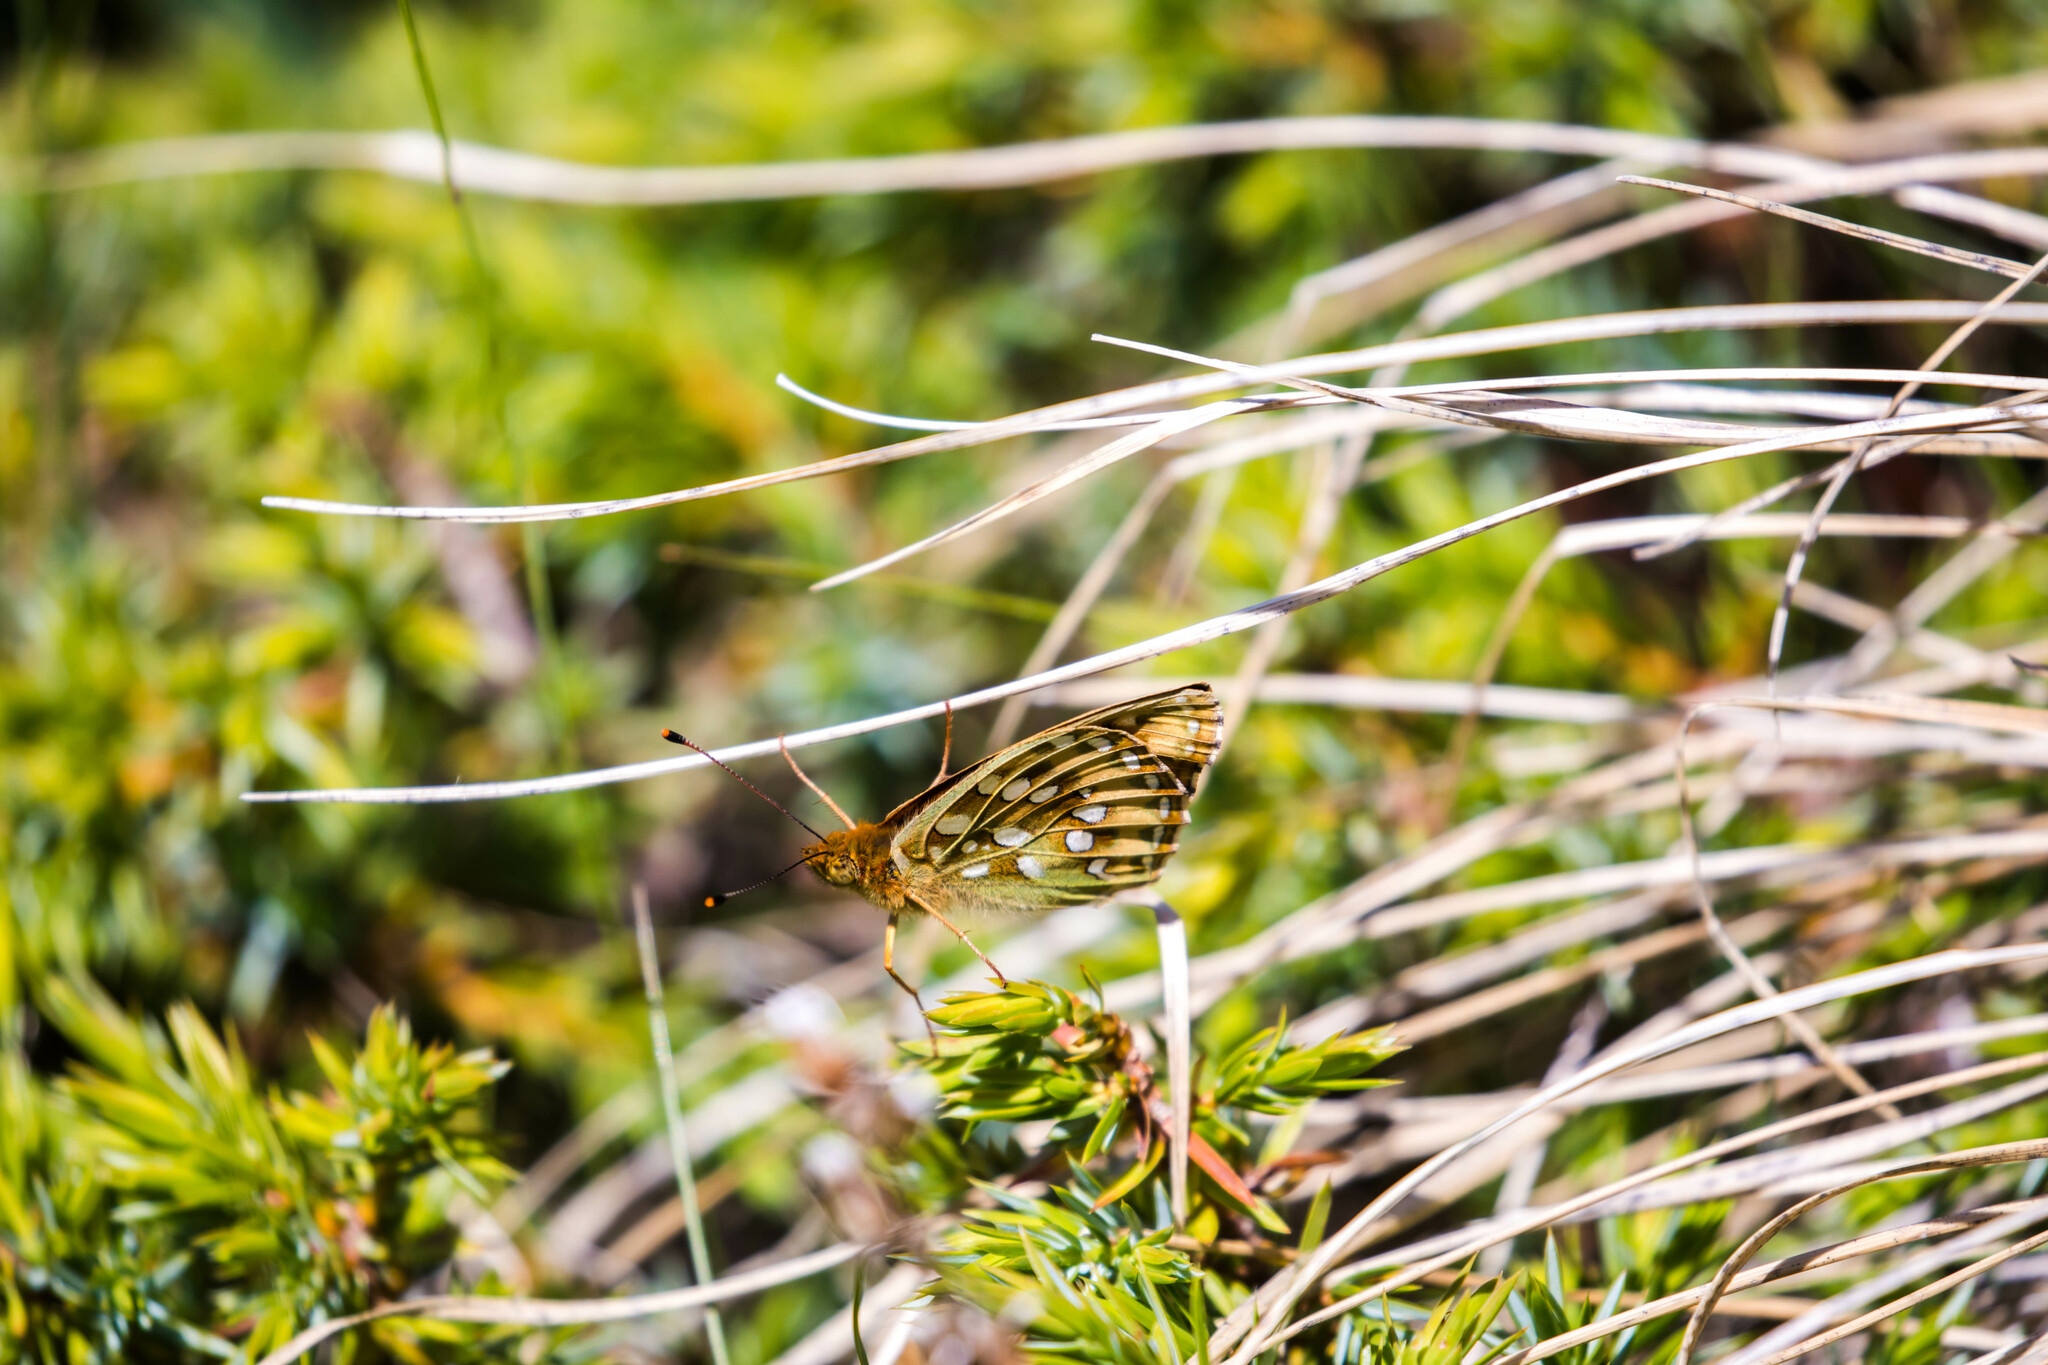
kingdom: Animalia
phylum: Arthropoda
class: Insecta
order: Lepidoptera
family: Nymphalidae
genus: Speyeria
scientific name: Speyeria aglaja
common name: Dark green fritillary
